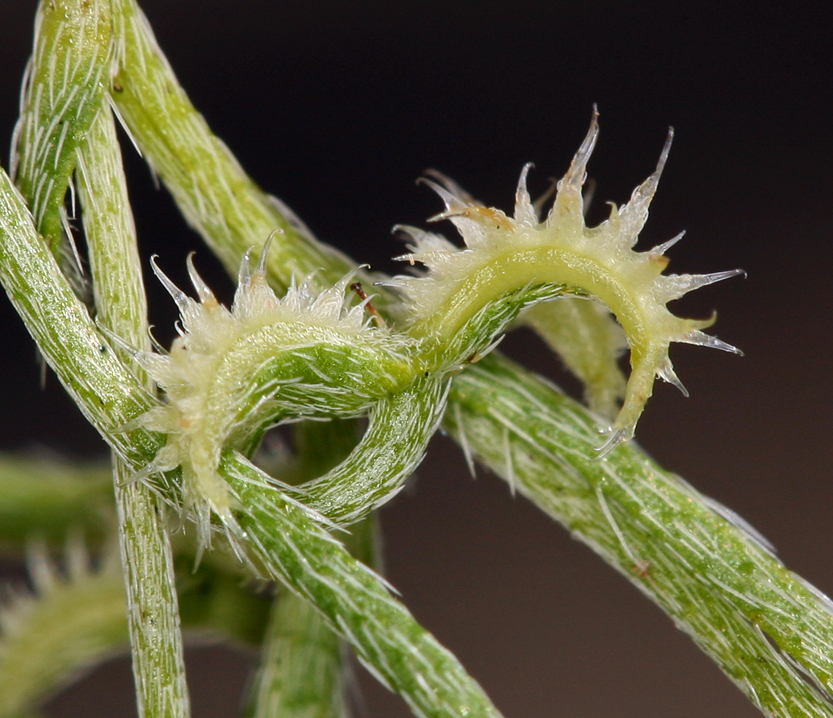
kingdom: Plantae
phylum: Tracheophyta
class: Magnoliopsida
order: Boraginales
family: Boraginaceae
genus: Pectocarya
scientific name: Pectocarya recurvata
